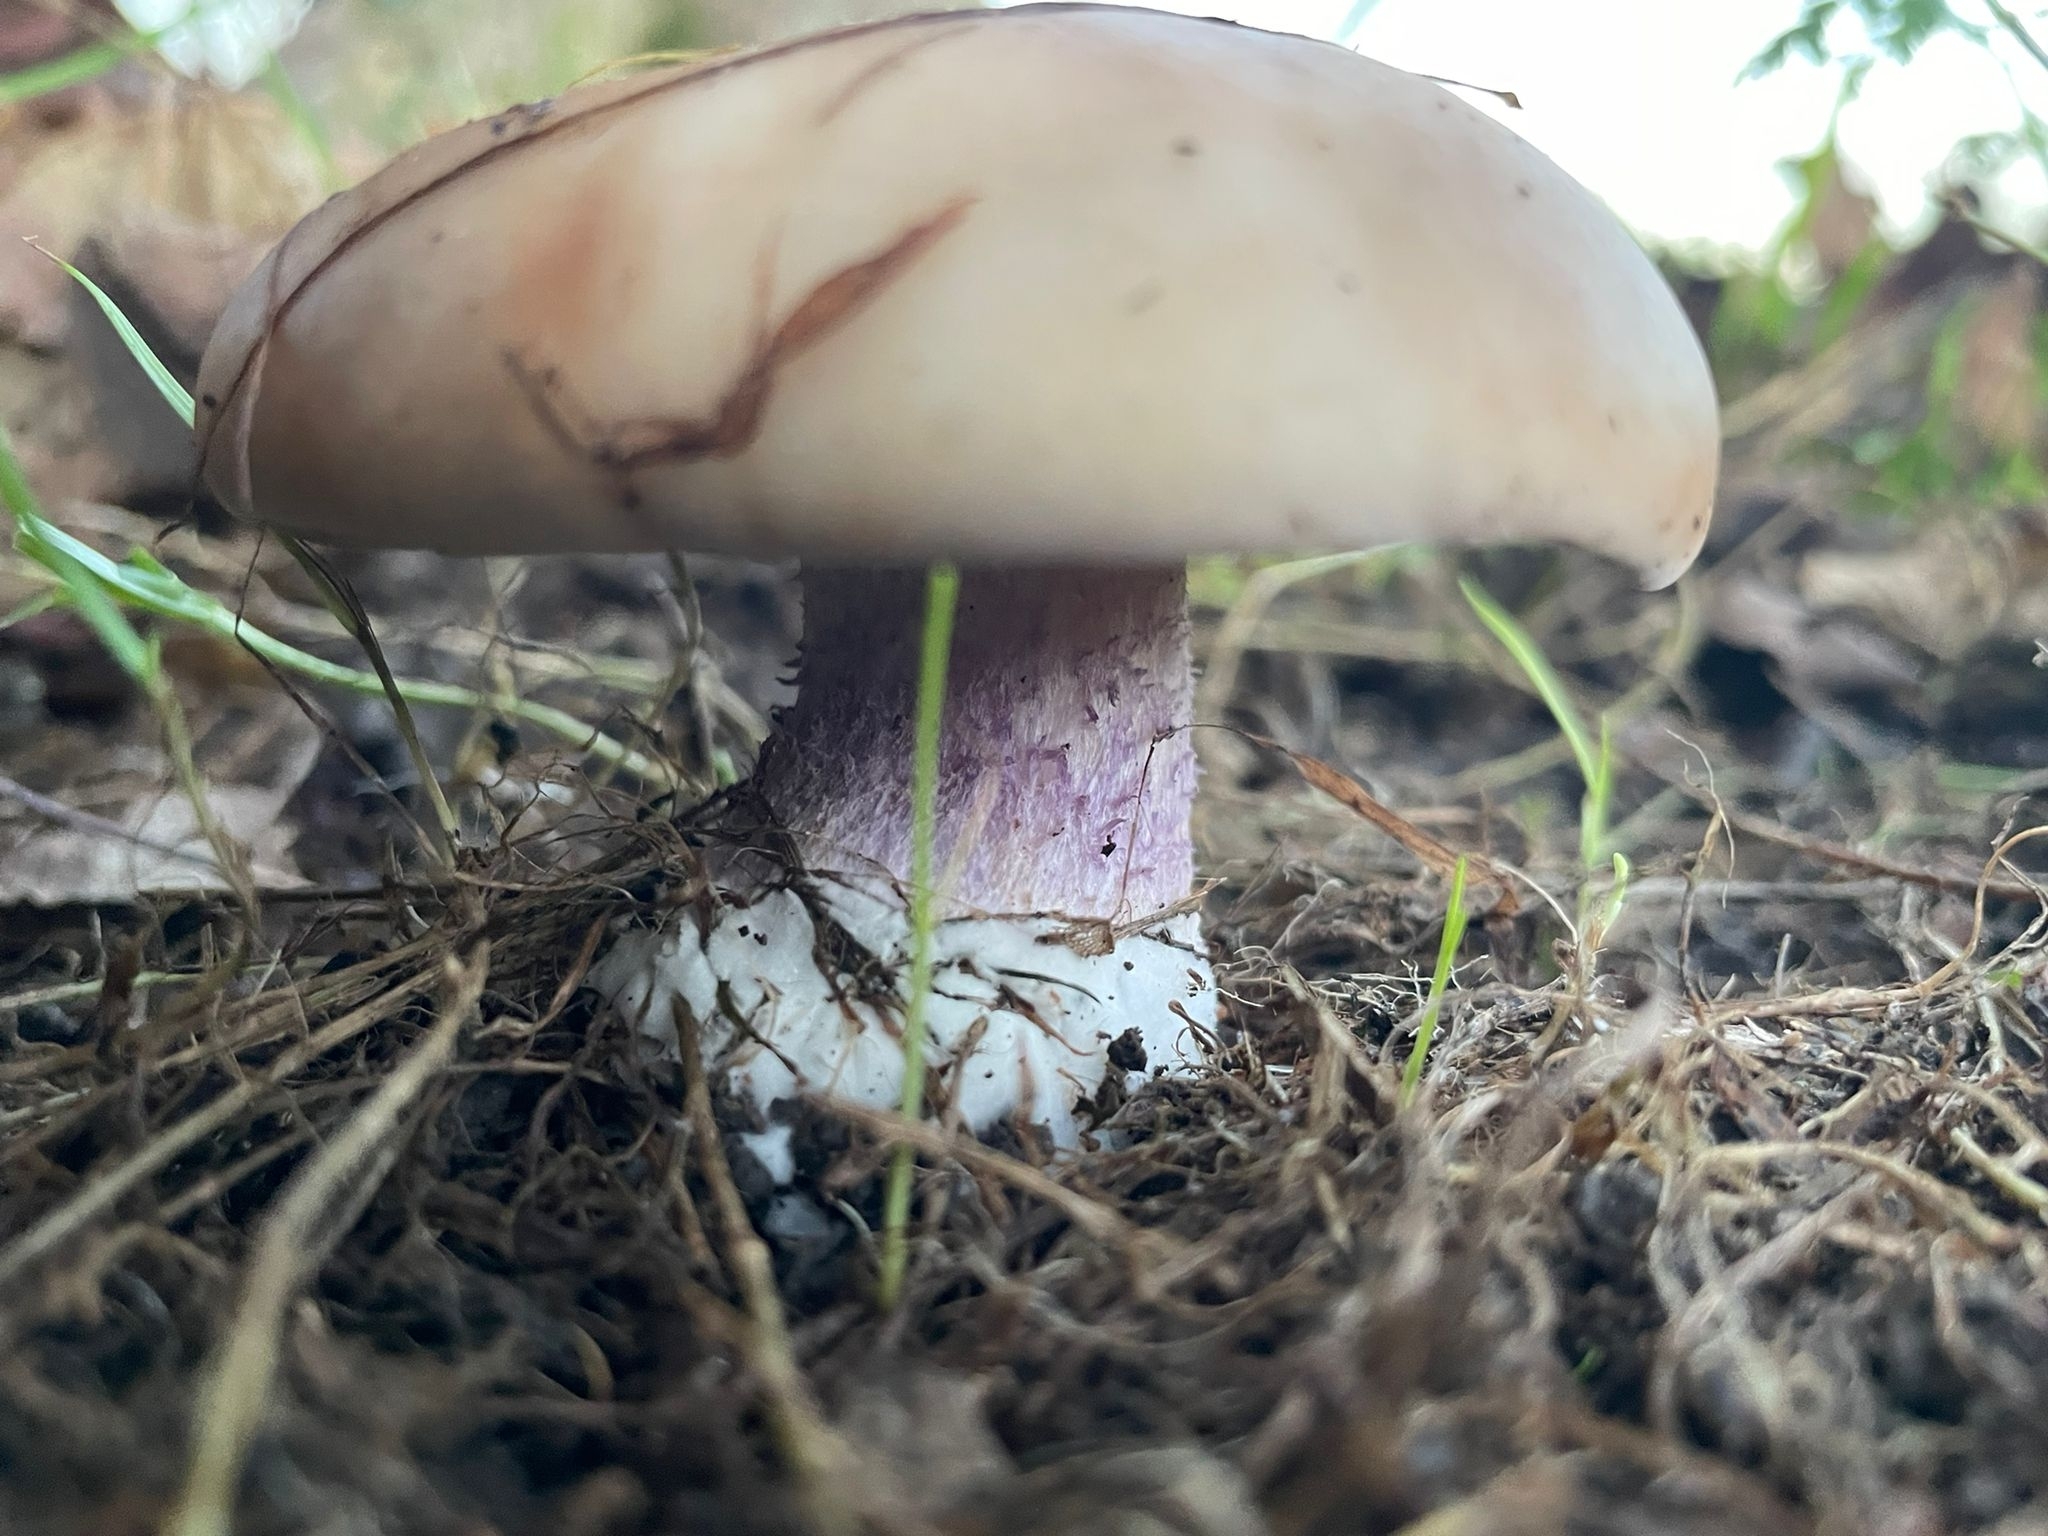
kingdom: Fungi
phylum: Basidiomycota
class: Agaricomycetes
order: Agaricales
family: Omphalotaceae
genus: Collybiopsis
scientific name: Collybiopsis peronata
